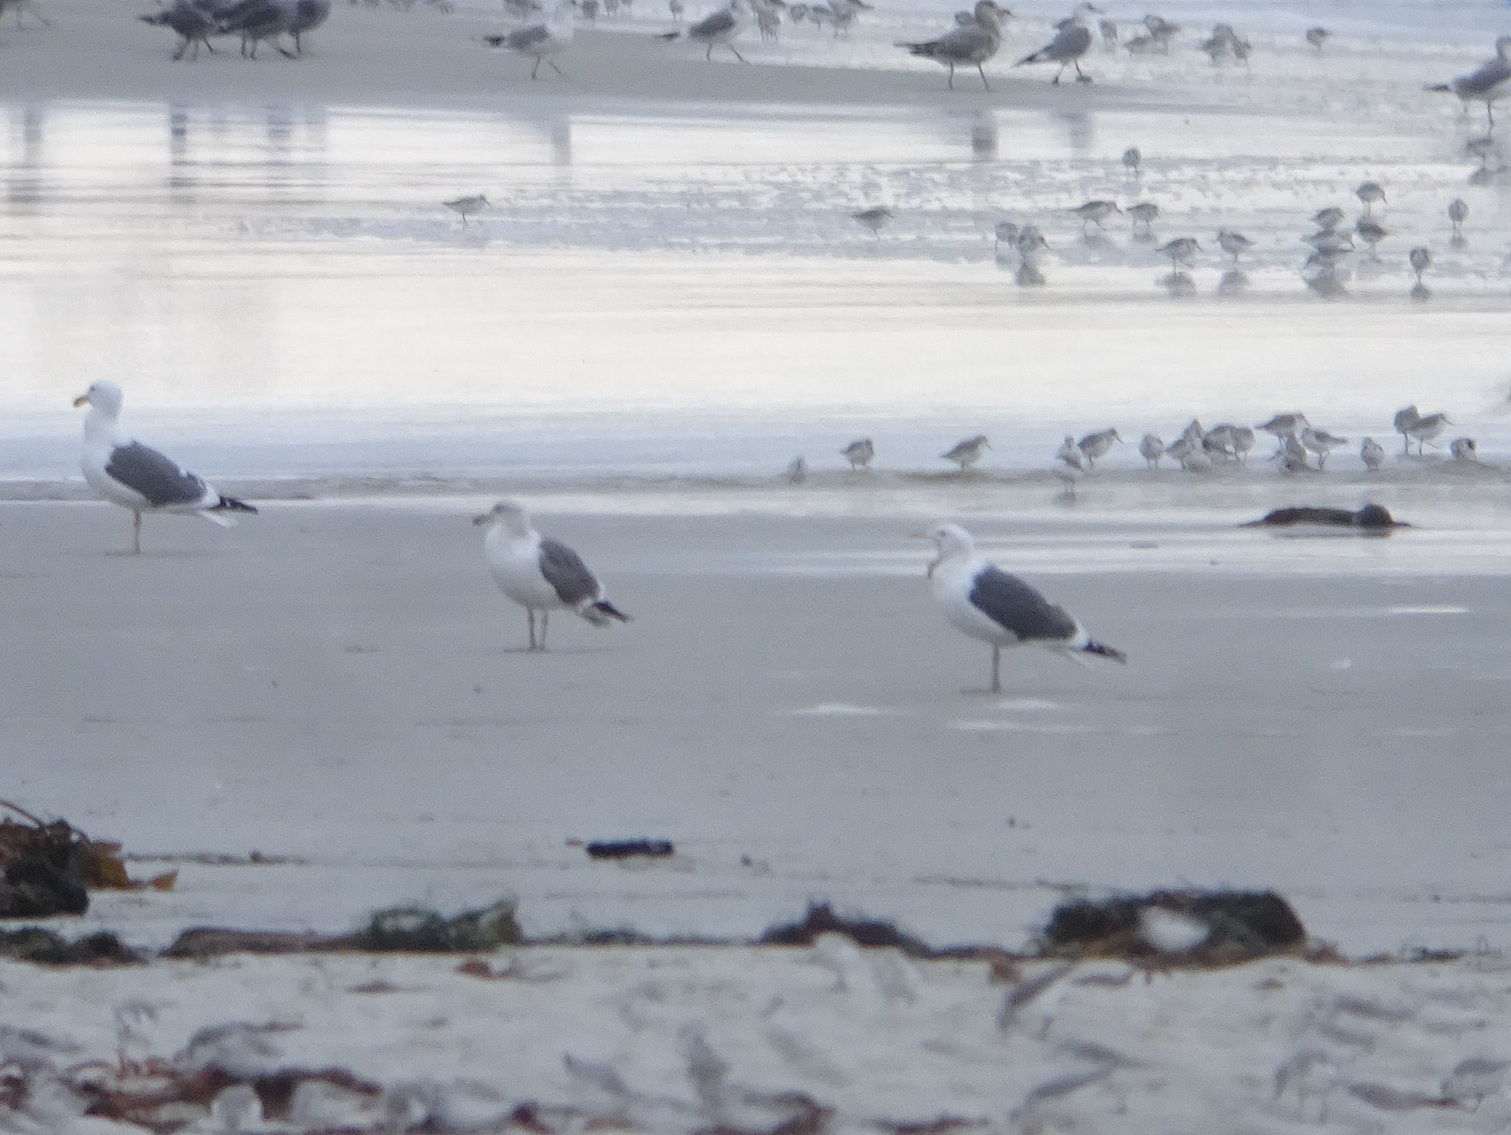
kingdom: Animalia
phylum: Chordata
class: Aves
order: Charadriiformes
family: Laridae
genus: Larus
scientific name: Larus occidentalis
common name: Western gull
